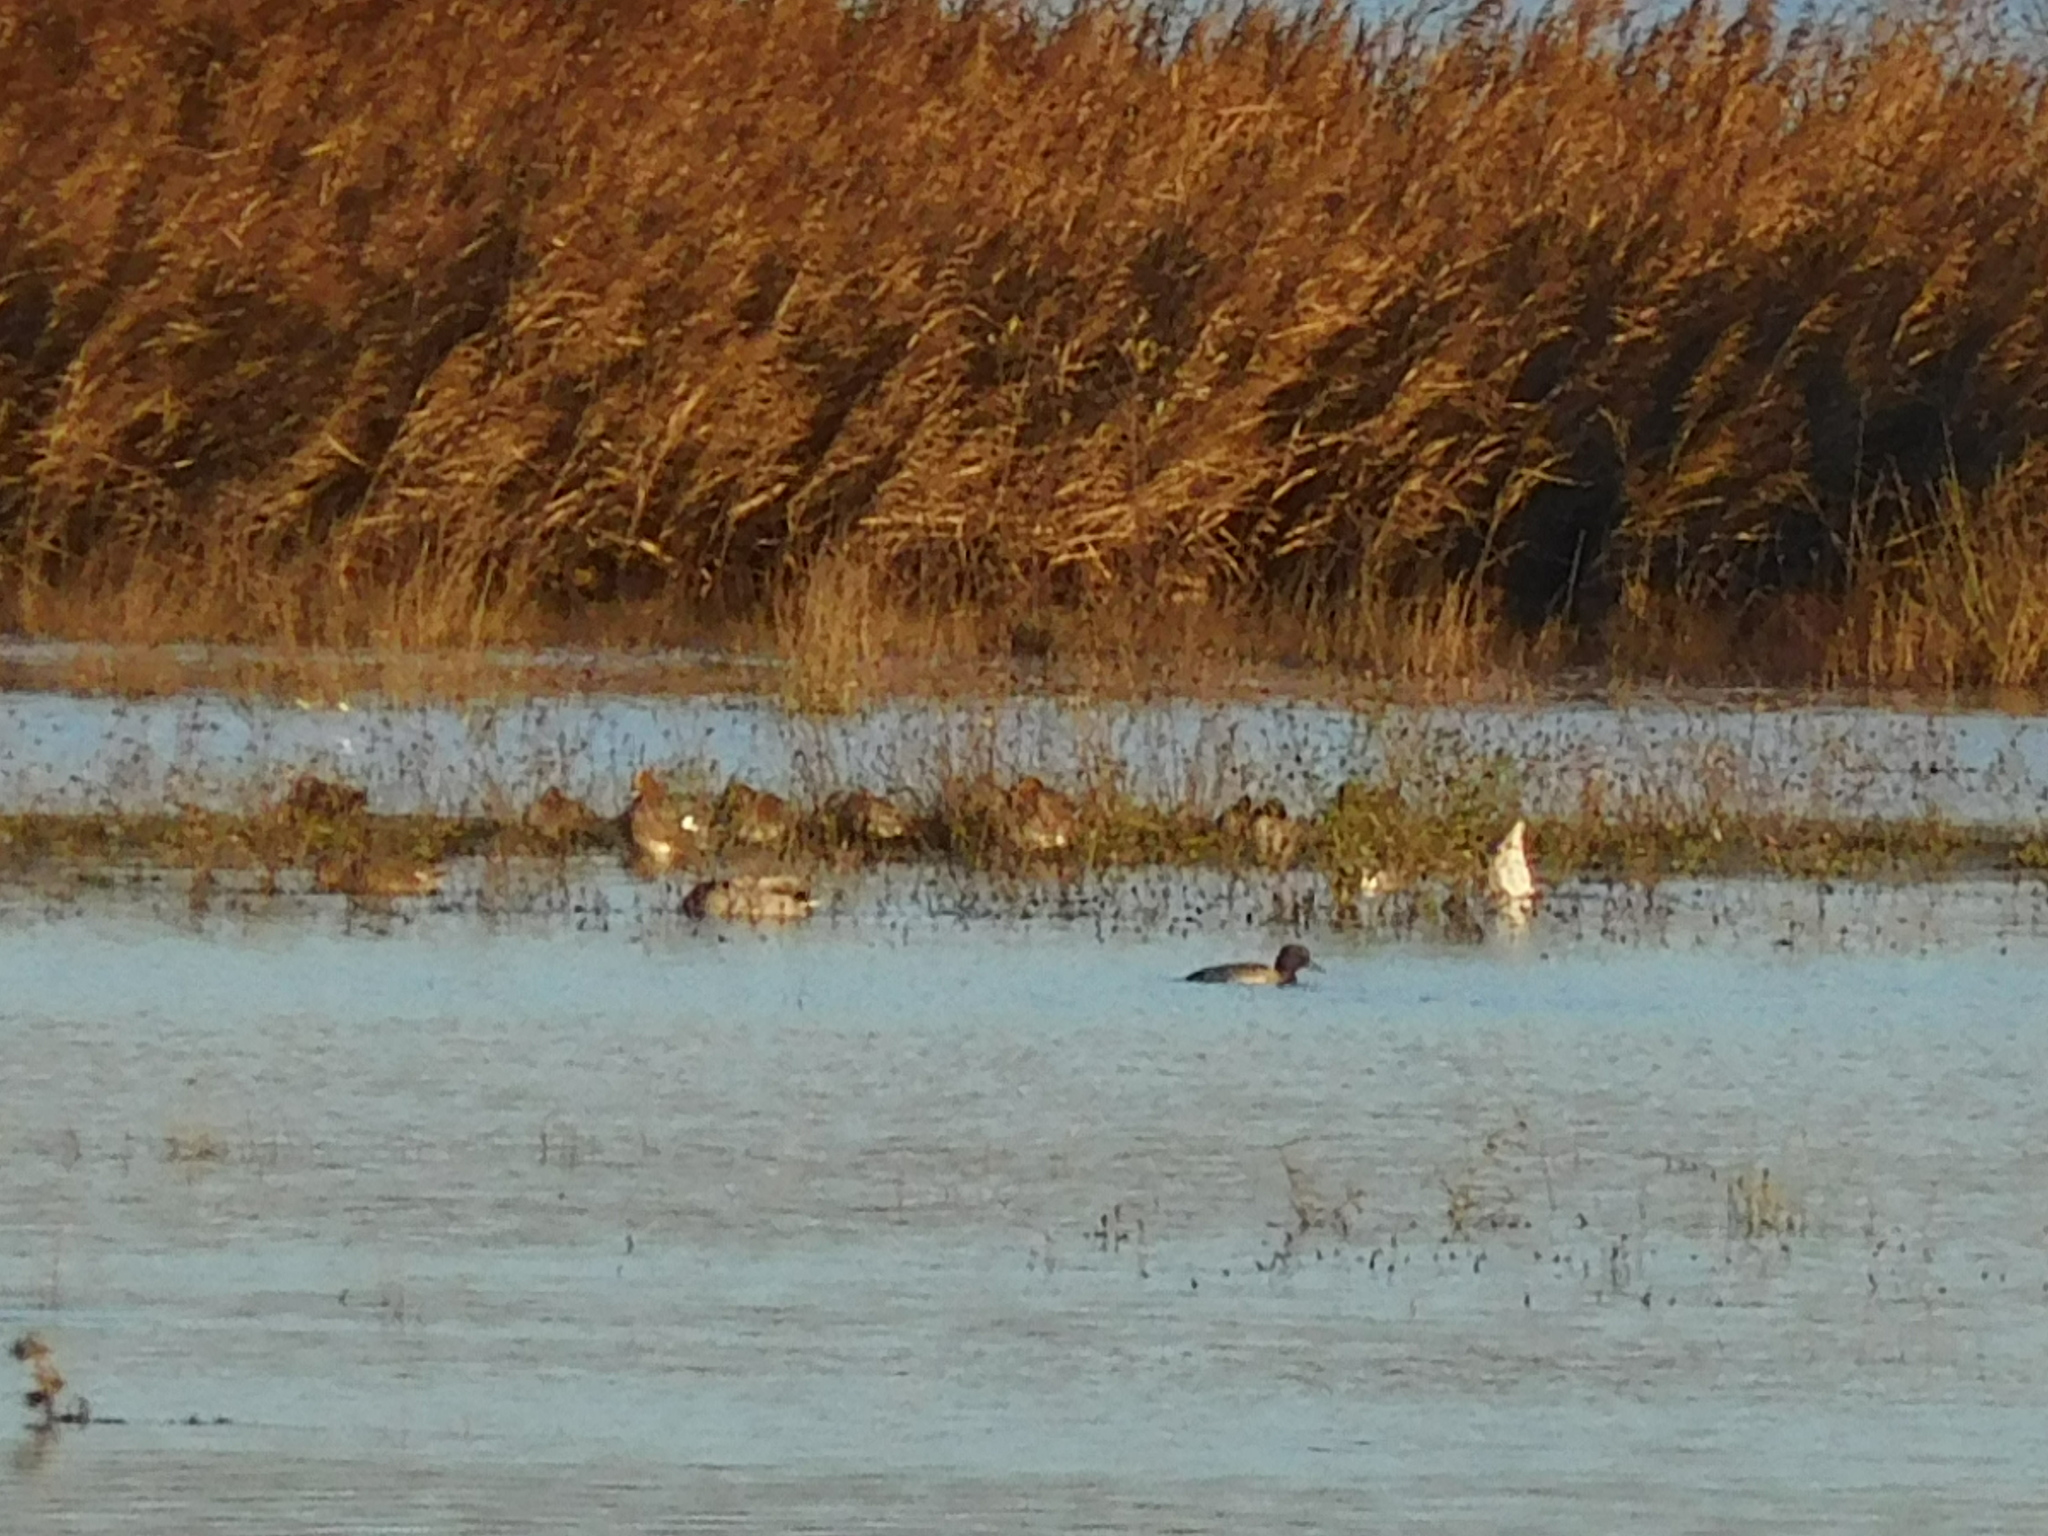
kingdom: Animalia
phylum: Chordata
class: Aves
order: Anseriformes
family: Anatidae
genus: Aythya
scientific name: Aythya fuligula
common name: Tufted duck
